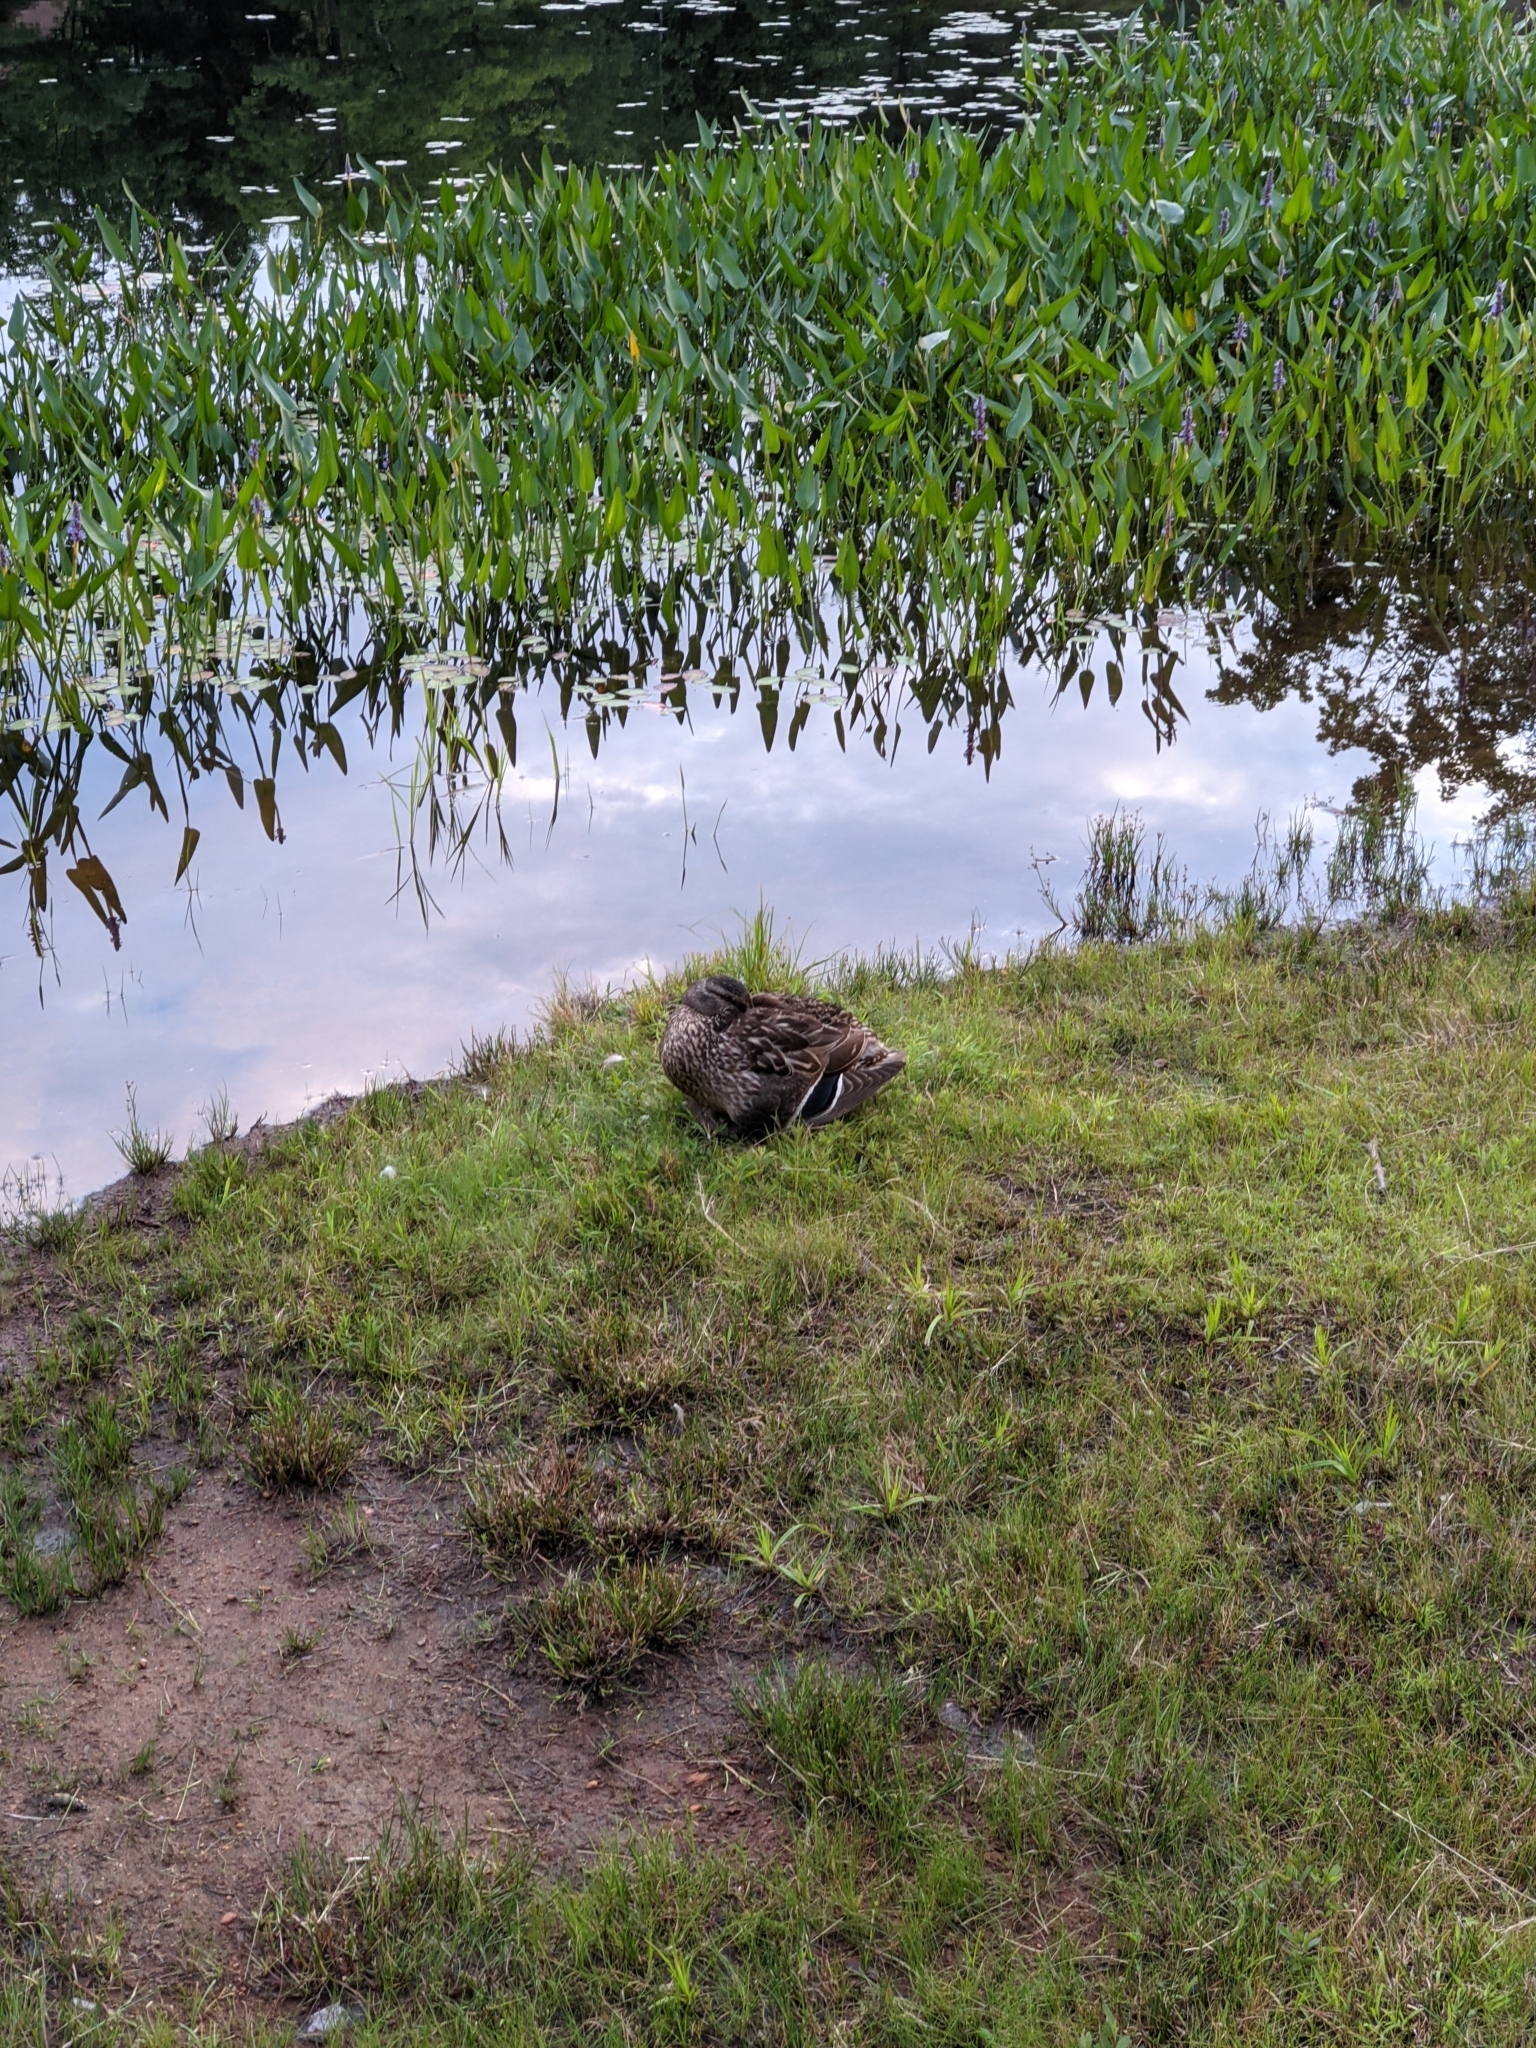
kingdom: Animalia
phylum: Chordata
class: Aves
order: Anseriformes
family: Anatidae
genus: Anas
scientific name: Anas platyrhynchos
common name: Mallard
